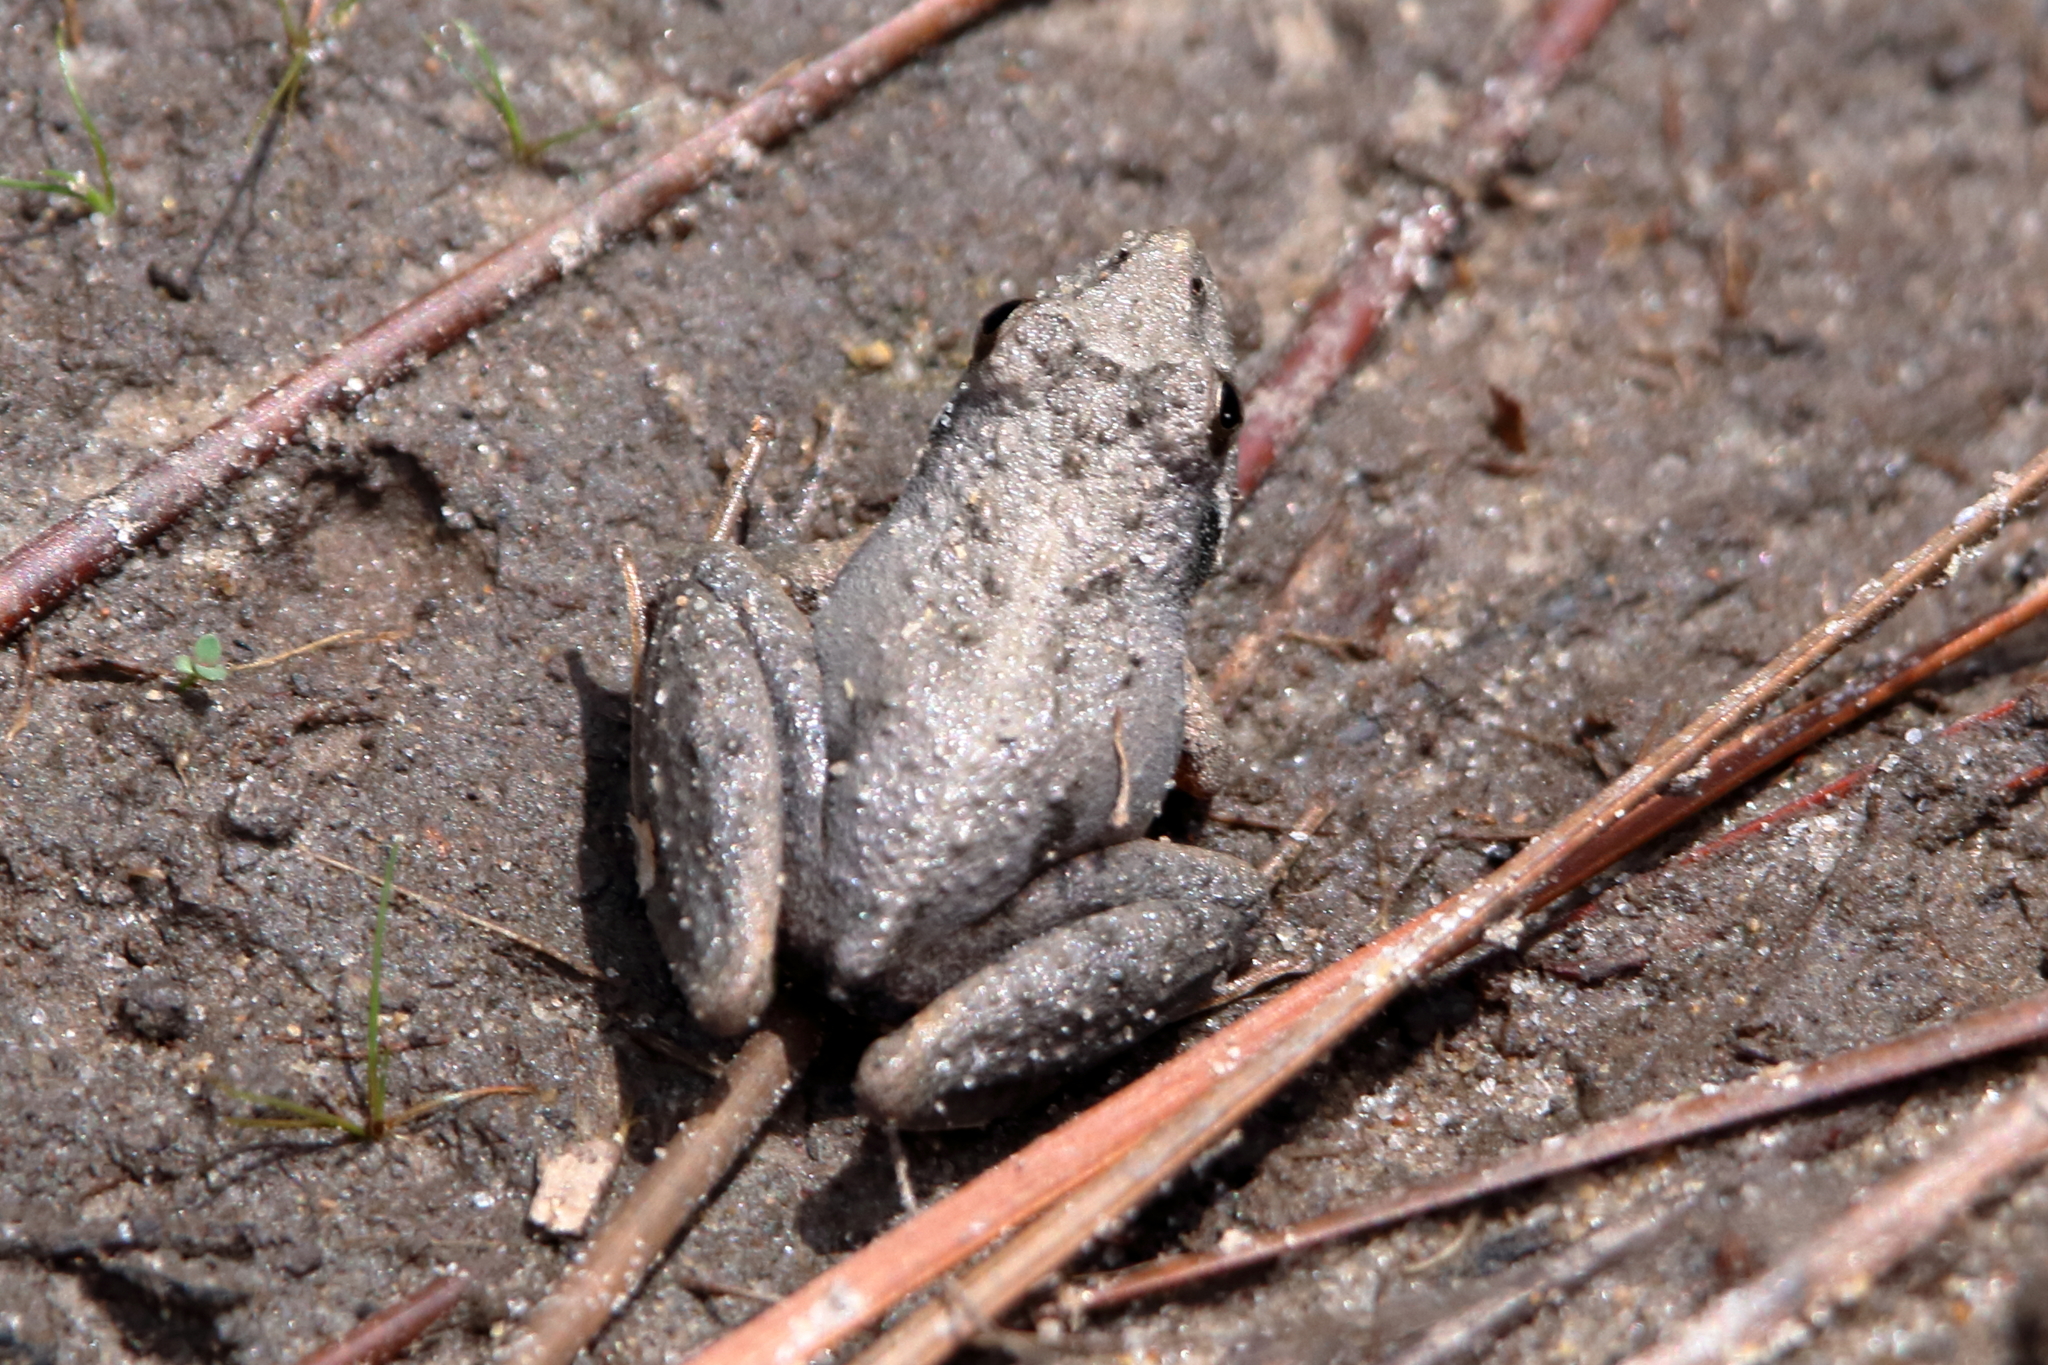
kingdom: Animalia
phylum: Chordata
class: Amphibia
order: Anura
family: Hylidae
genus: Acris
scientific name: Acris gryllus
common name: Southern cricket frog
